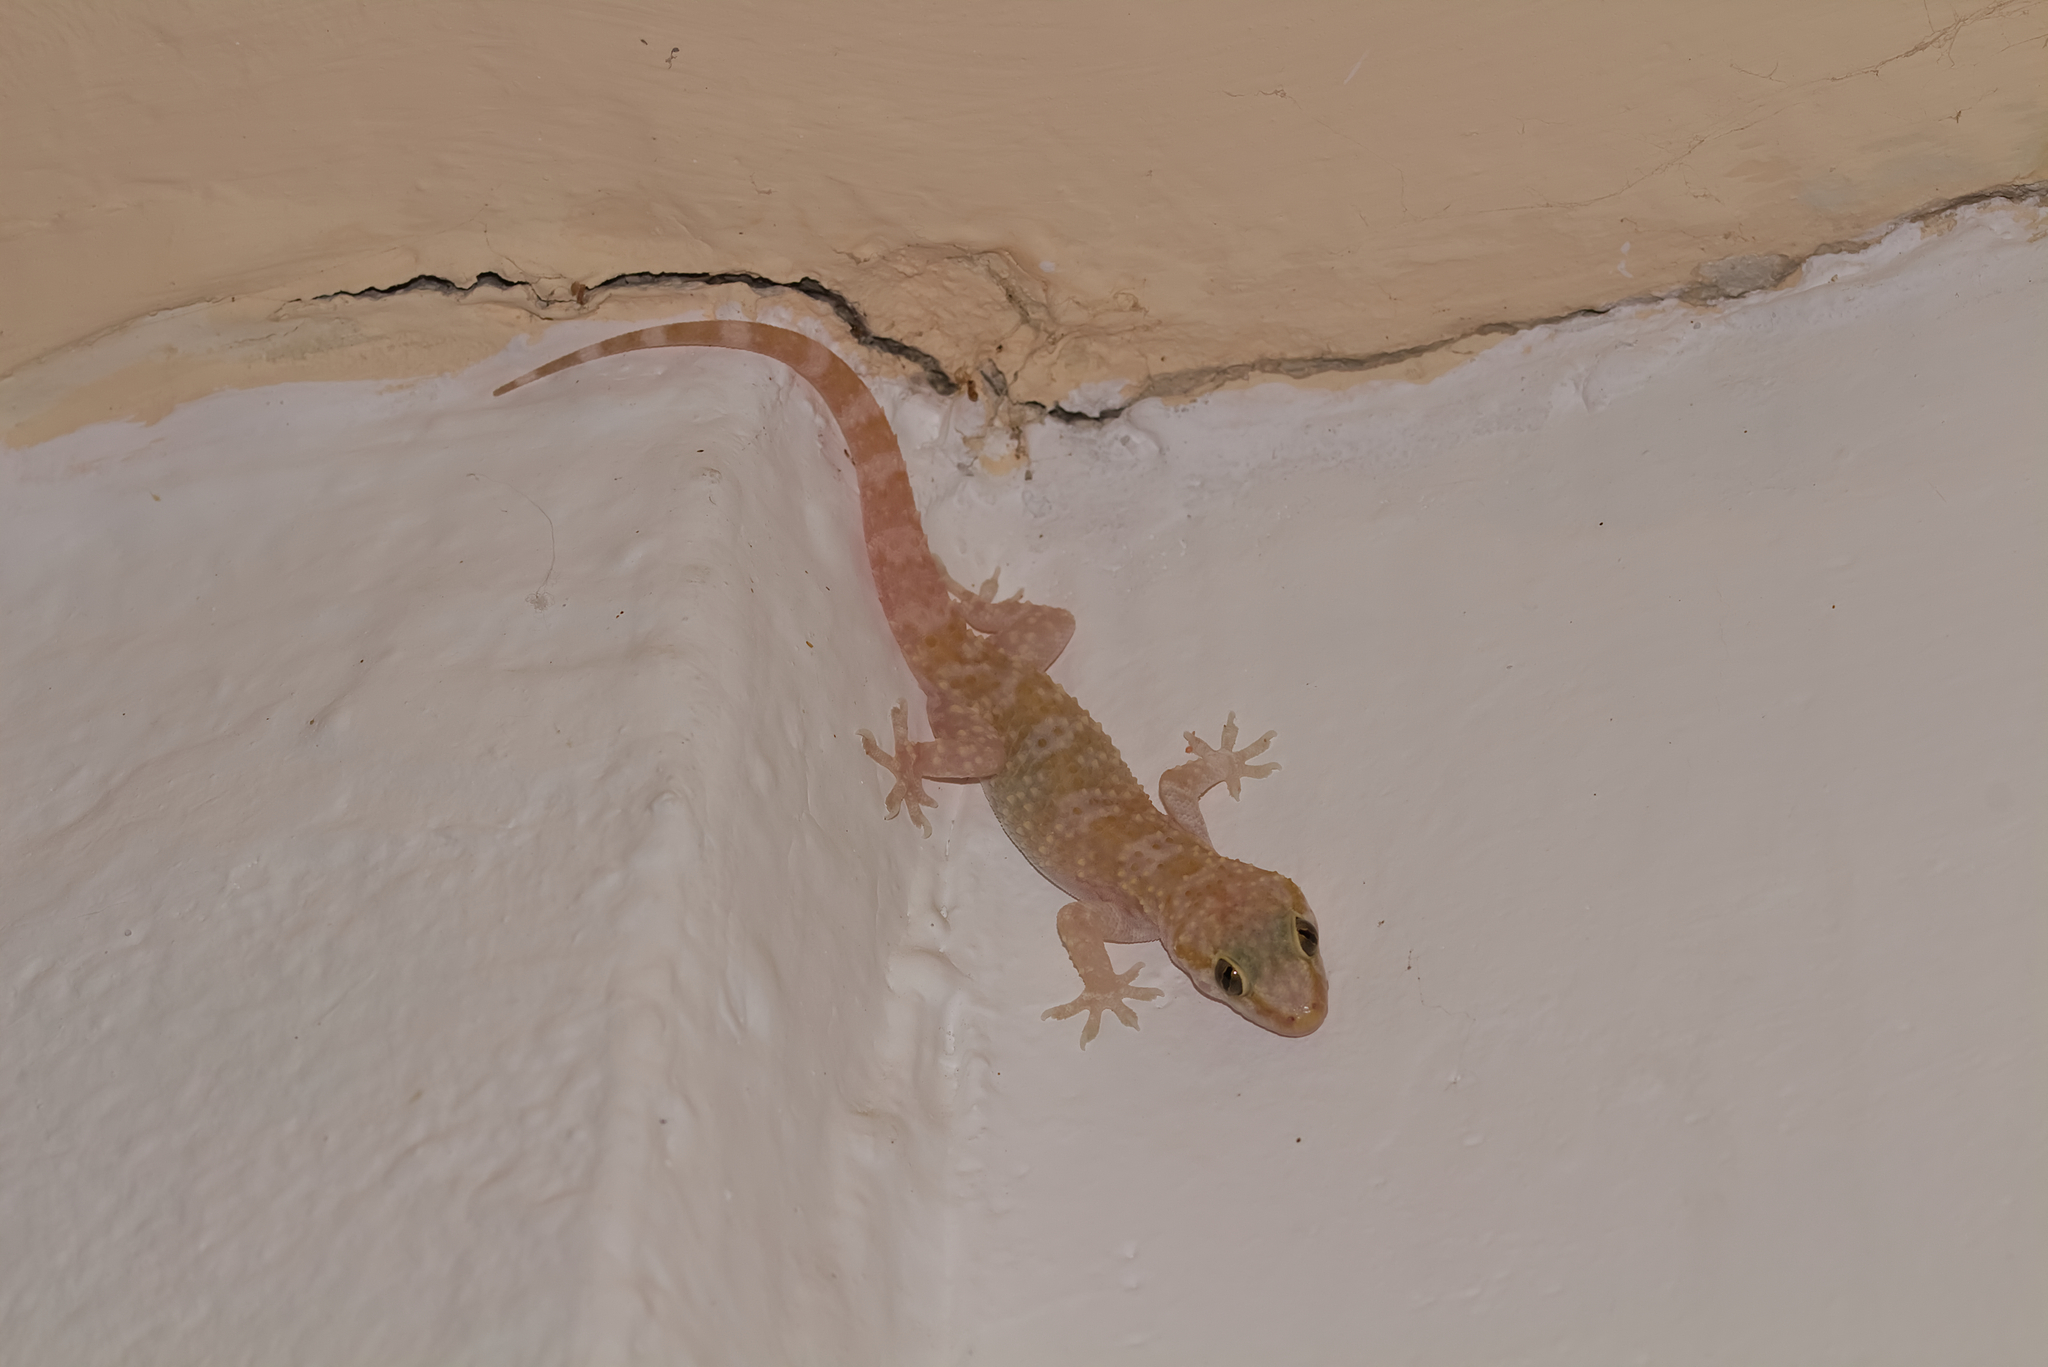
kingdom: Animalia
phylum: Chordata
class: Squamata
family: Gekkonidae
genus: Hemidactylus
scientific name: Hemidactylus turcicus
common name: Turkish gecko
